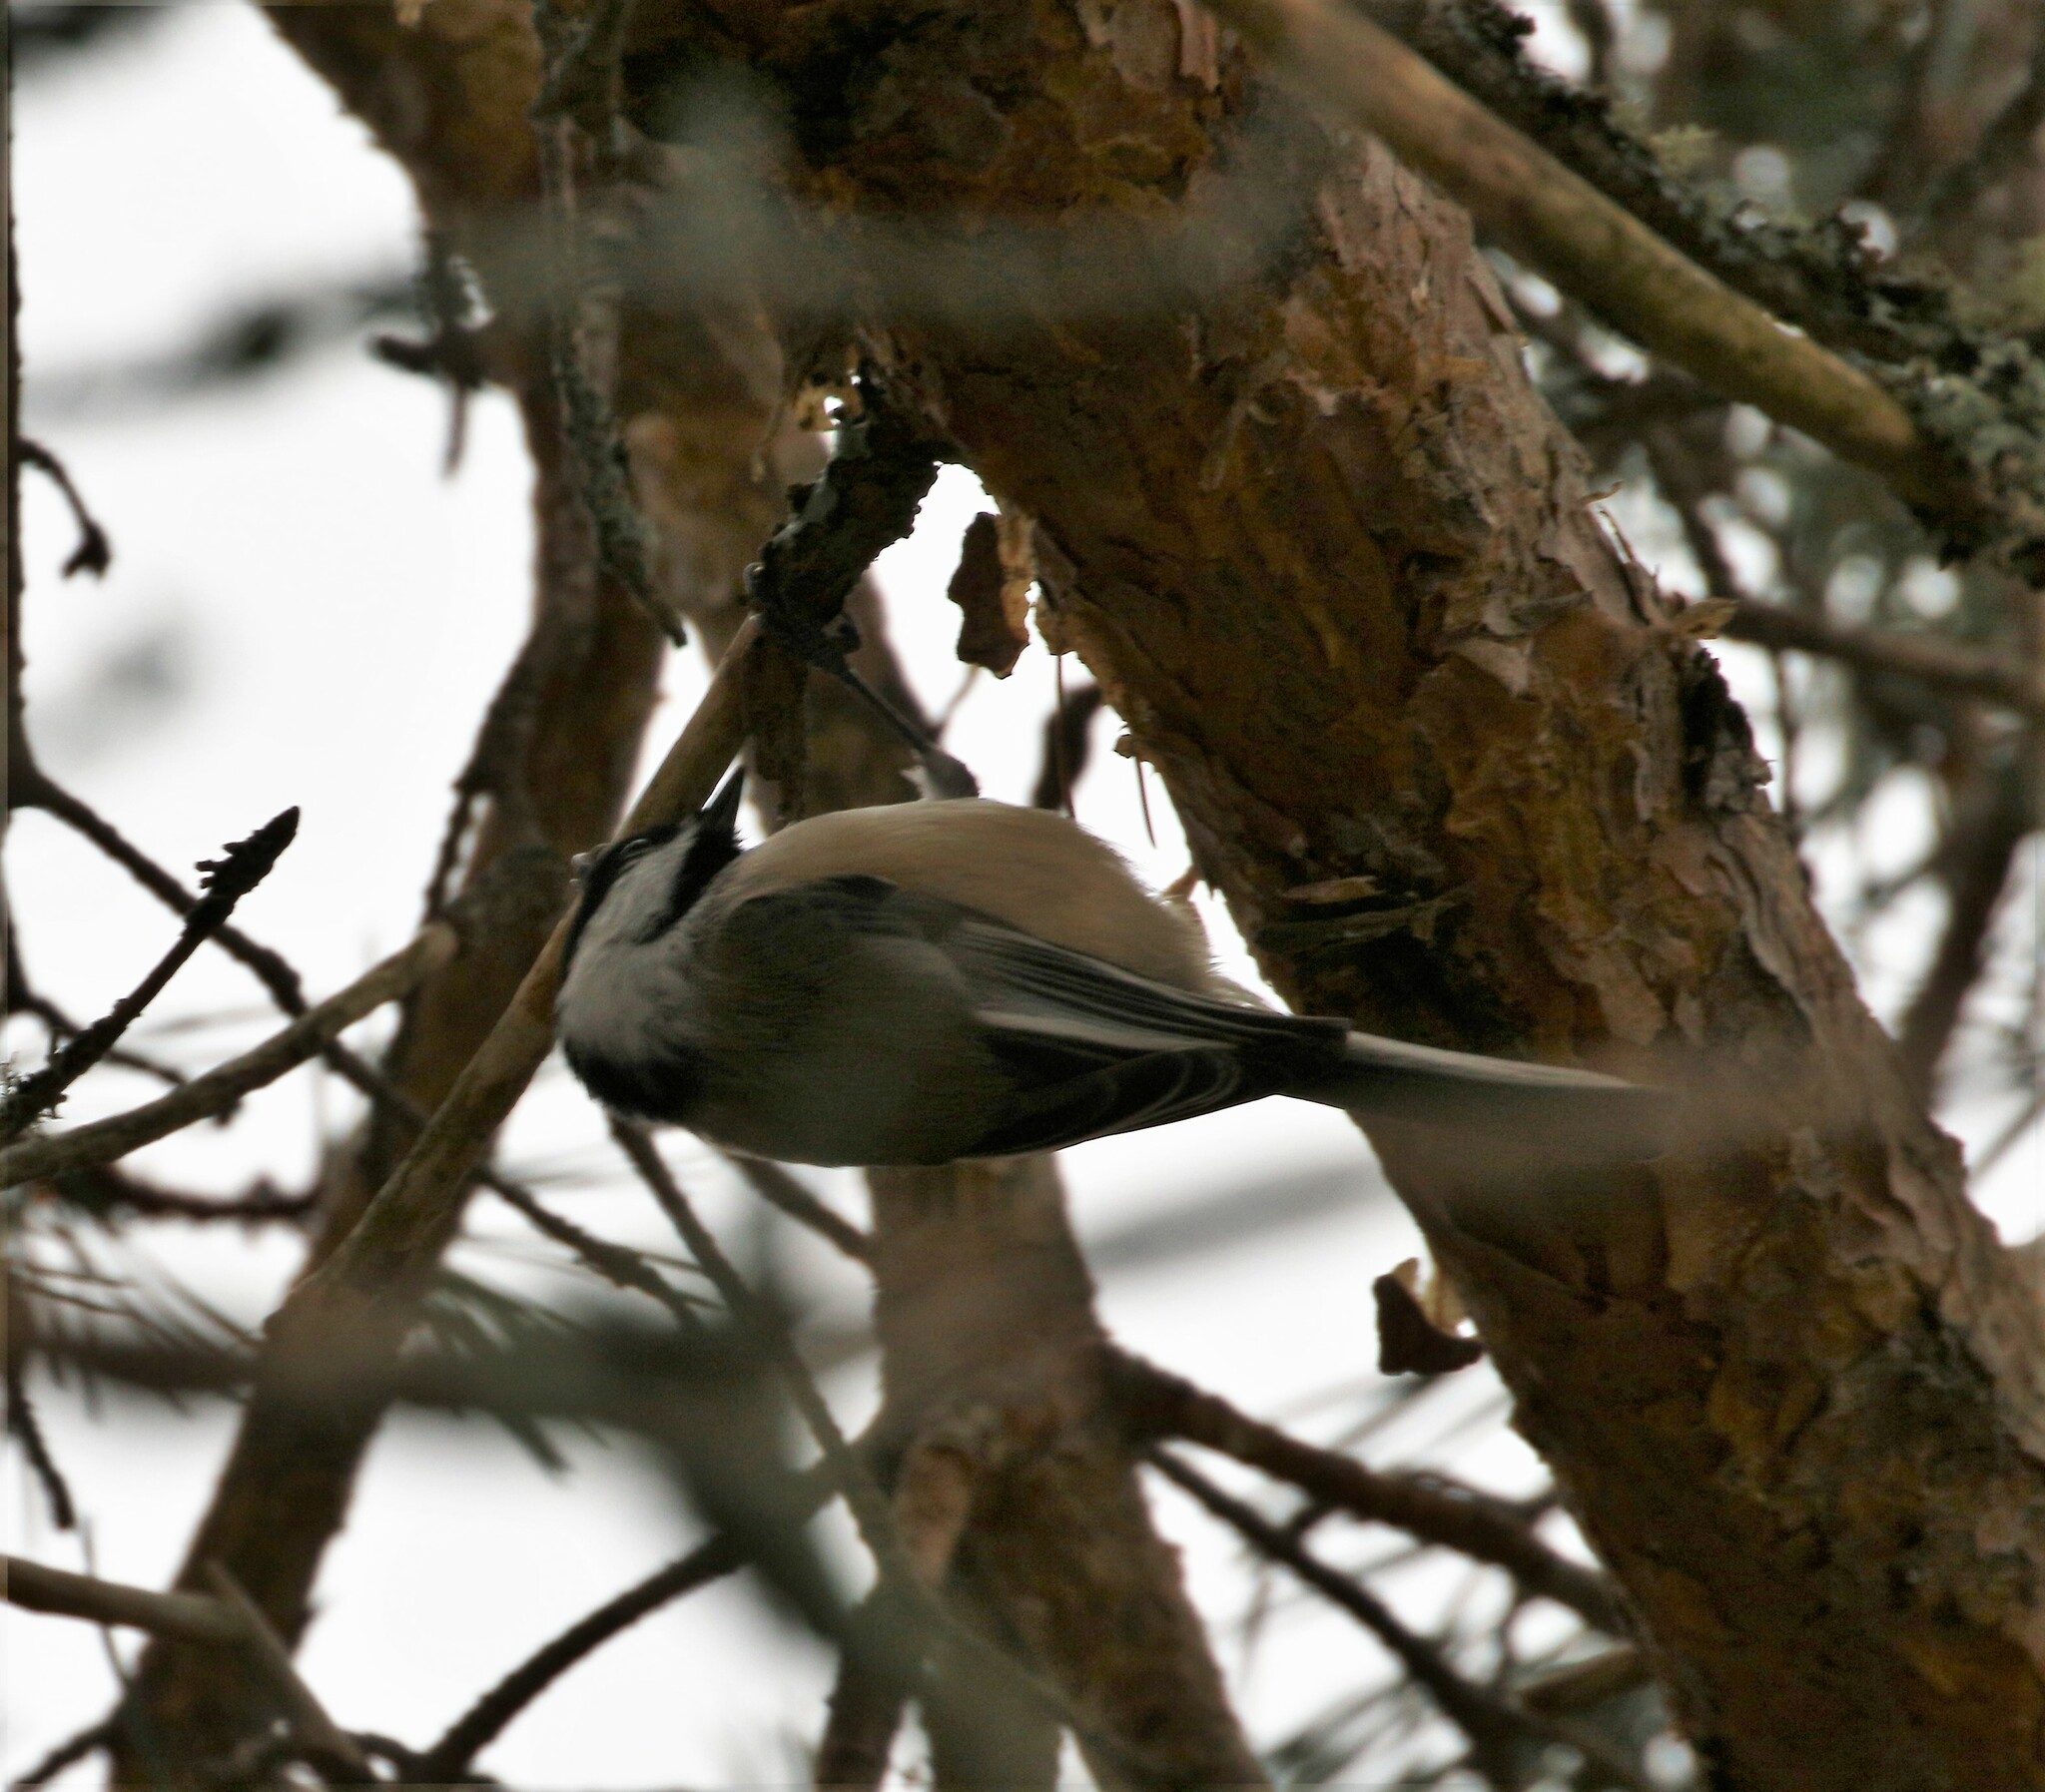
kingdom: Animalia
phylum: Chordata
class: Aves
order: Passeriformes
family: Paridae
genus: Poecile
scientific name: Poecile atricapillus
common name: Black-capped chickadee
